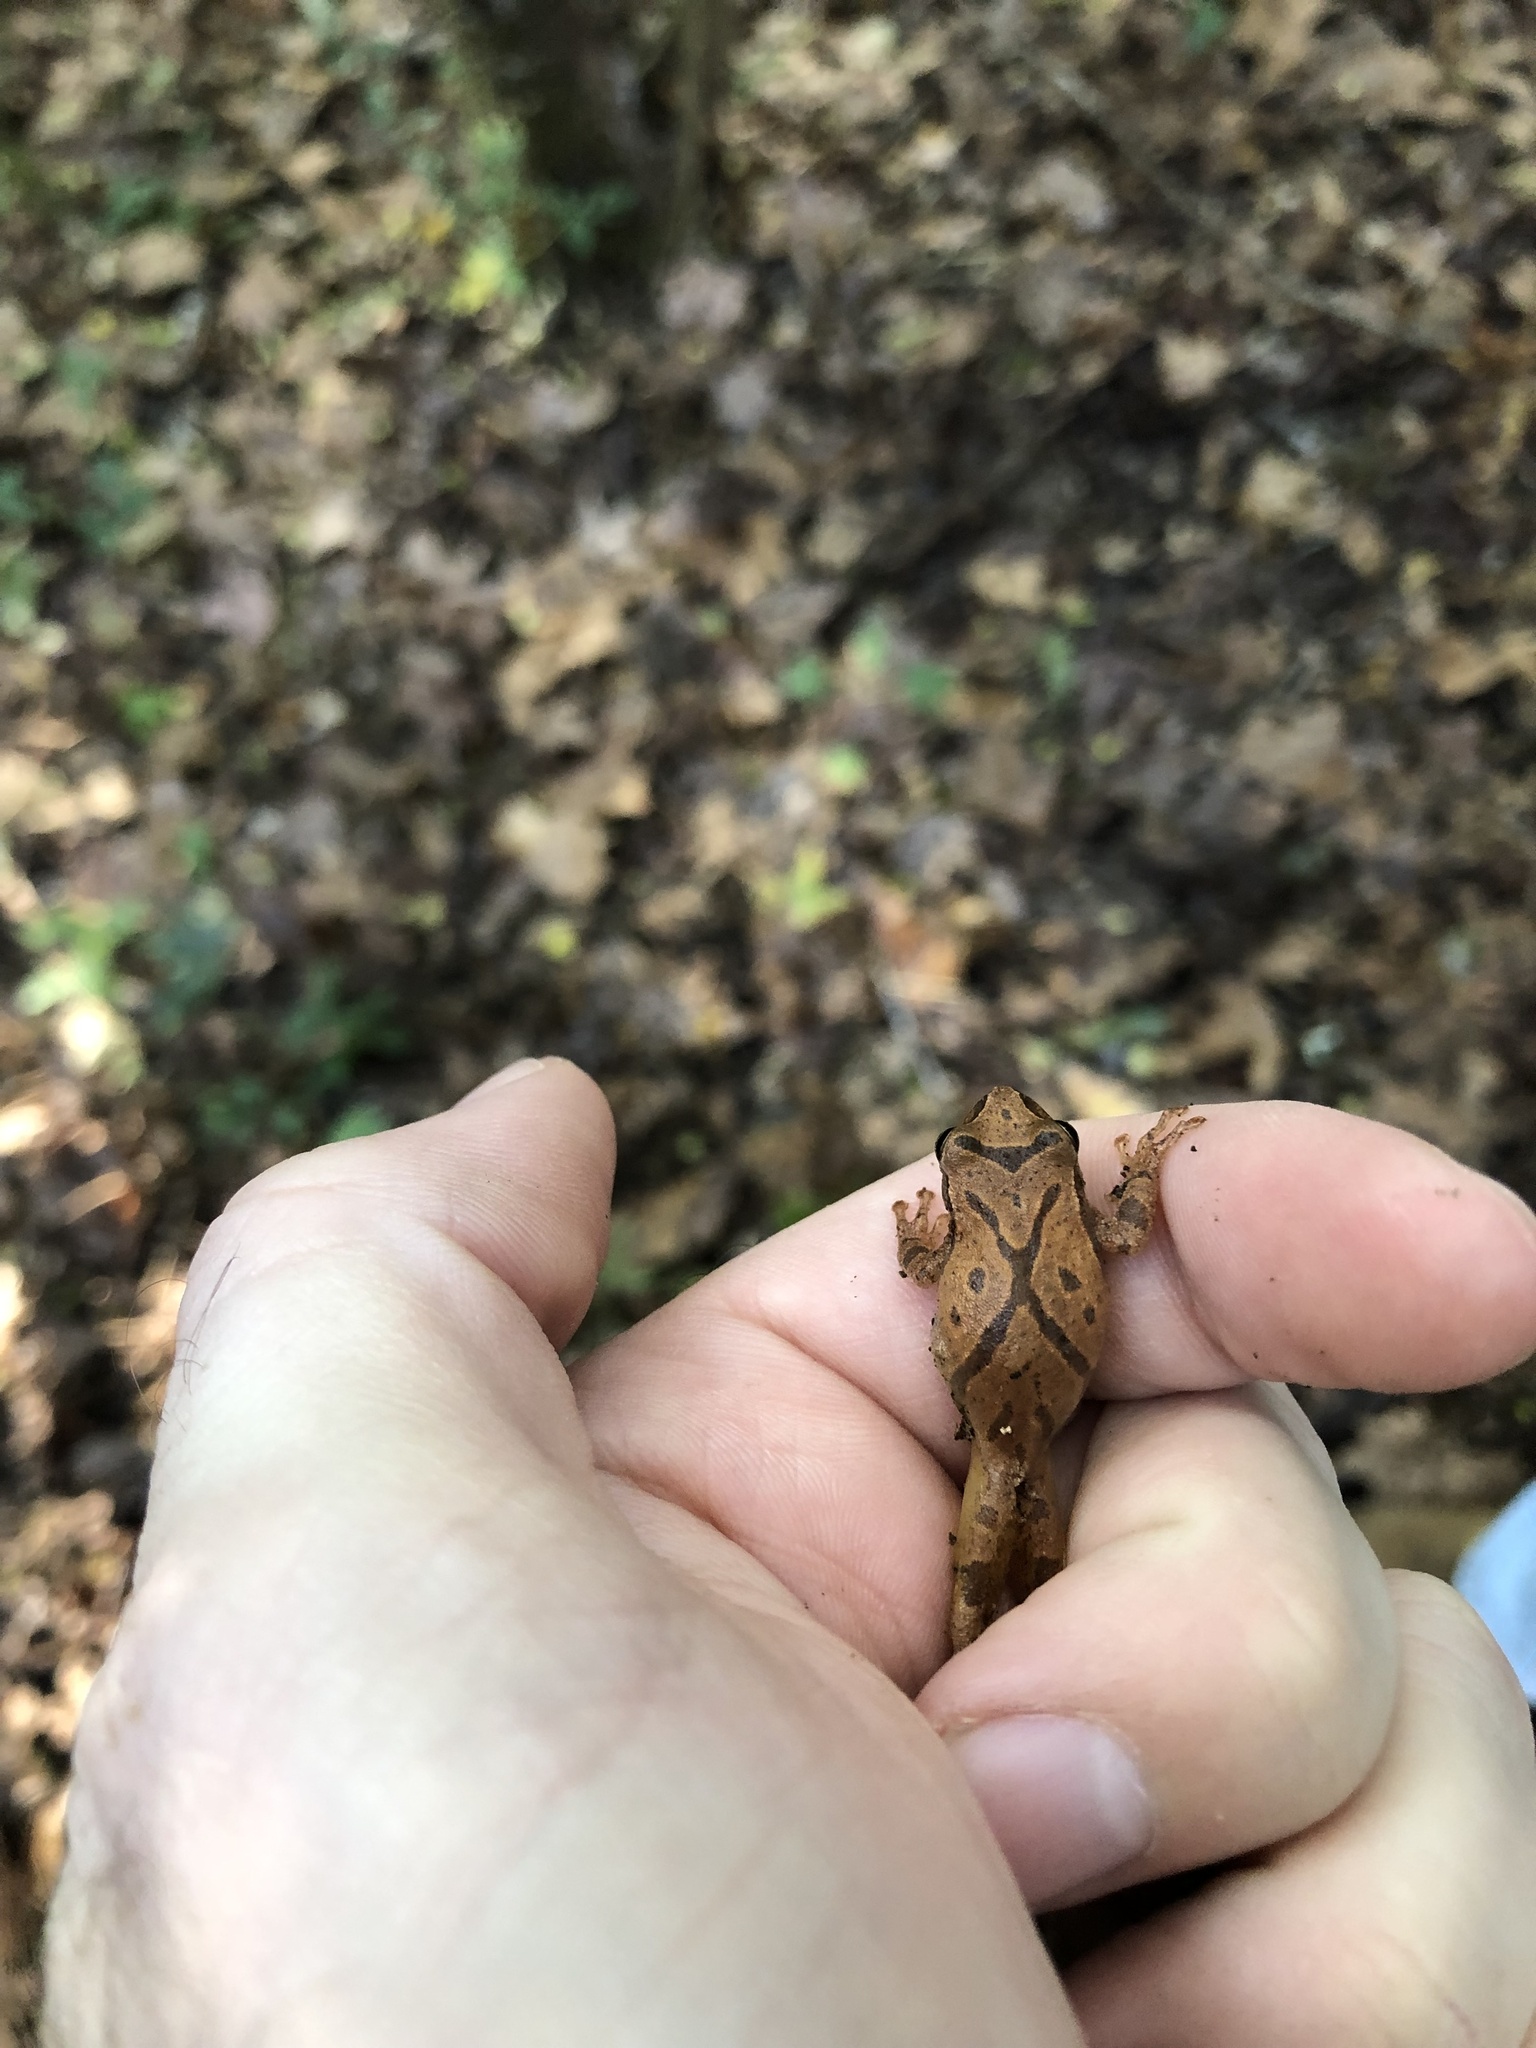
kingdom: Animalia
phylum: Chordata
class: Amphibia
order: Anura
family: Hylidae
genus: Pseudacris
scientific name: Pseudacris crucifer
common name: Spring peeper
